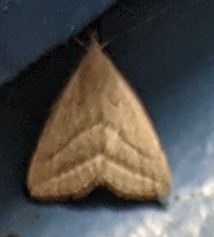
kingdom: Animalia
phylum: Arthropoda
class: Insecta
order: Lepidoptera
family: Erebidae
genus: Macrochilo
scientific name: Macrochilo absorptalis
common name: Slant-lined owlet
